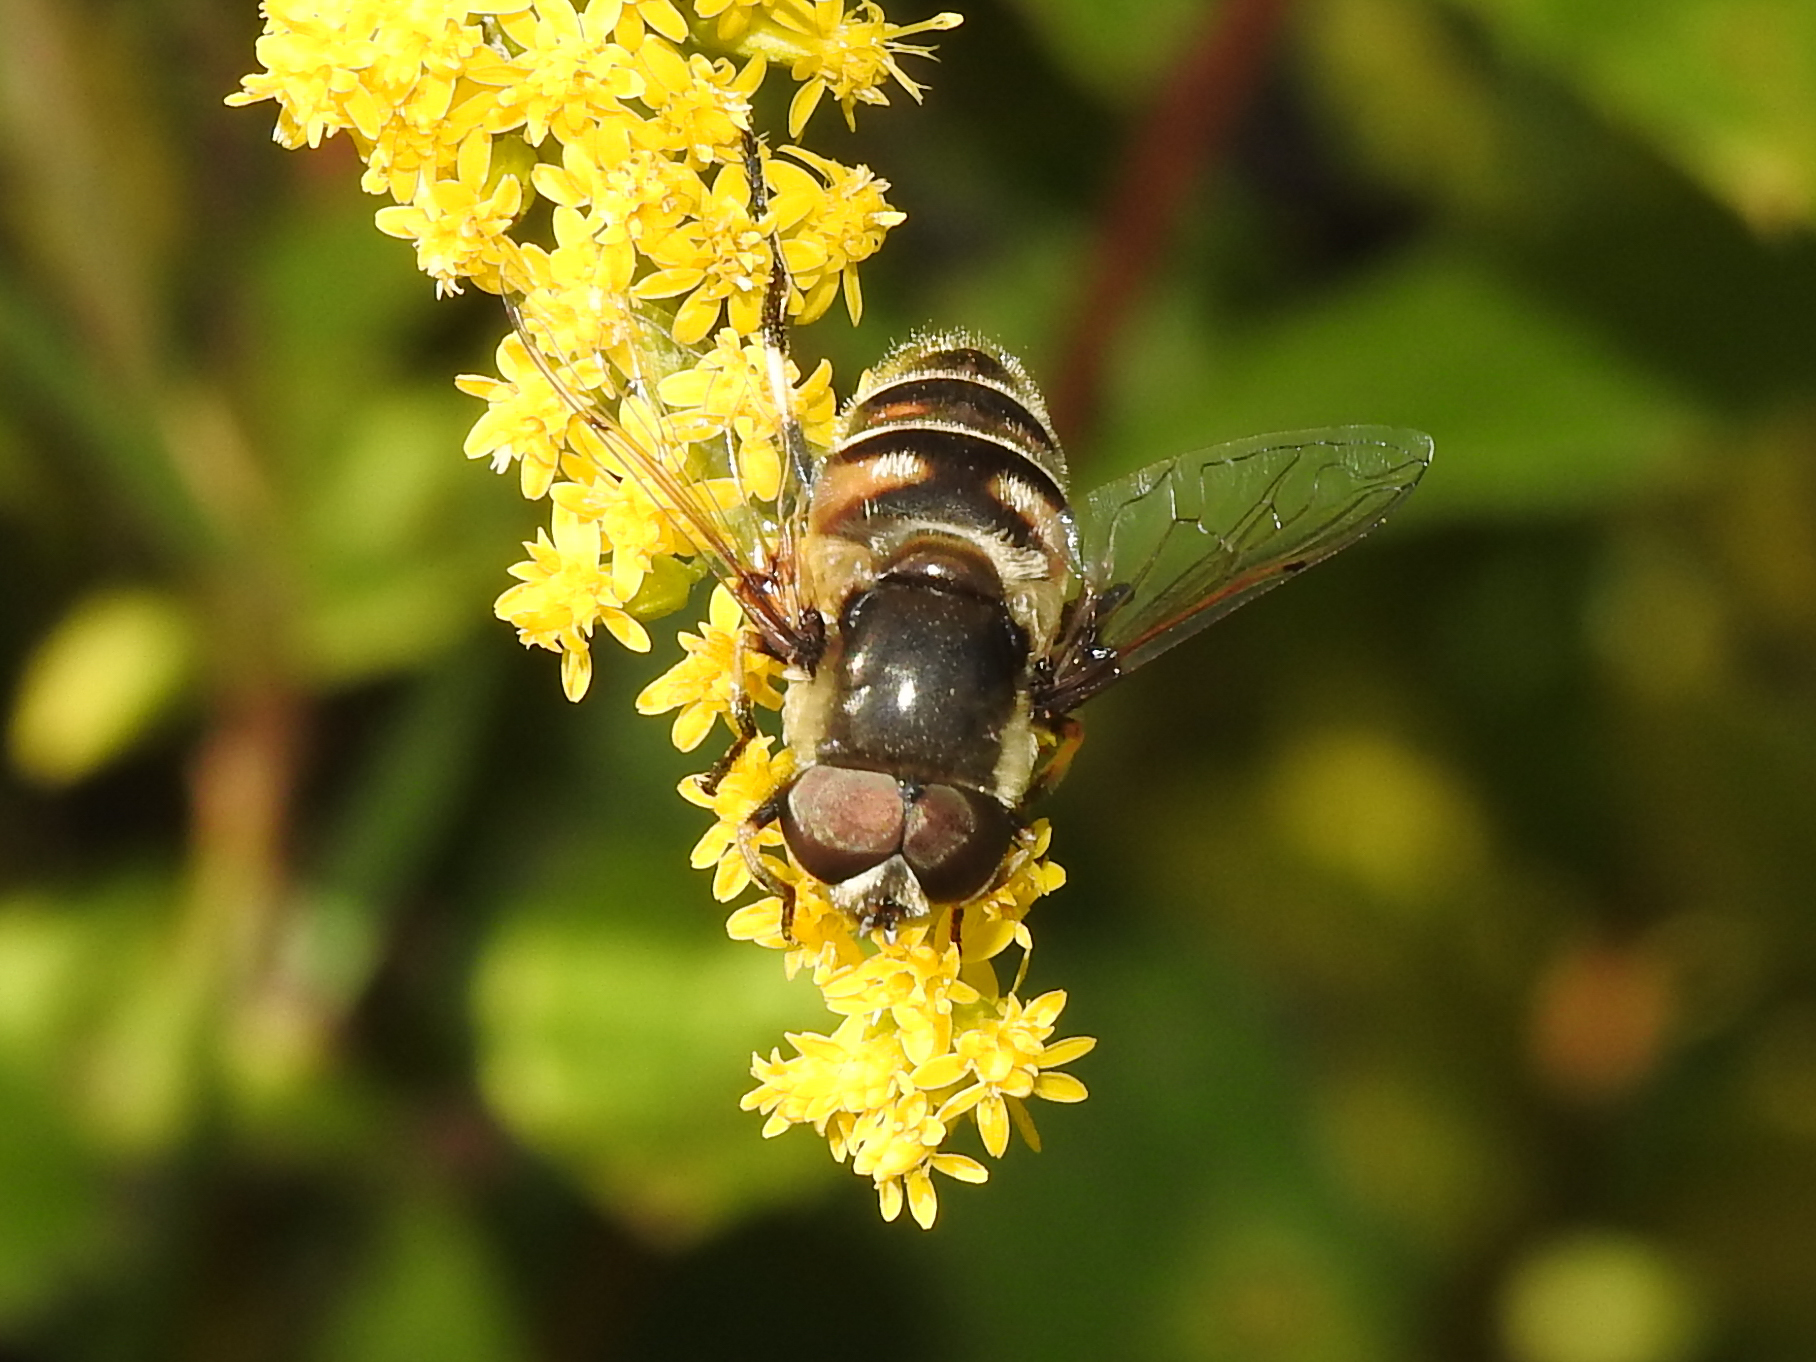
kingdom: Animalia
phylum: Arthropoda
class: Insecta
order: Diptera
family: Syrphidae
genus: Eristalis
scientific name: Eristalis dimidiata
